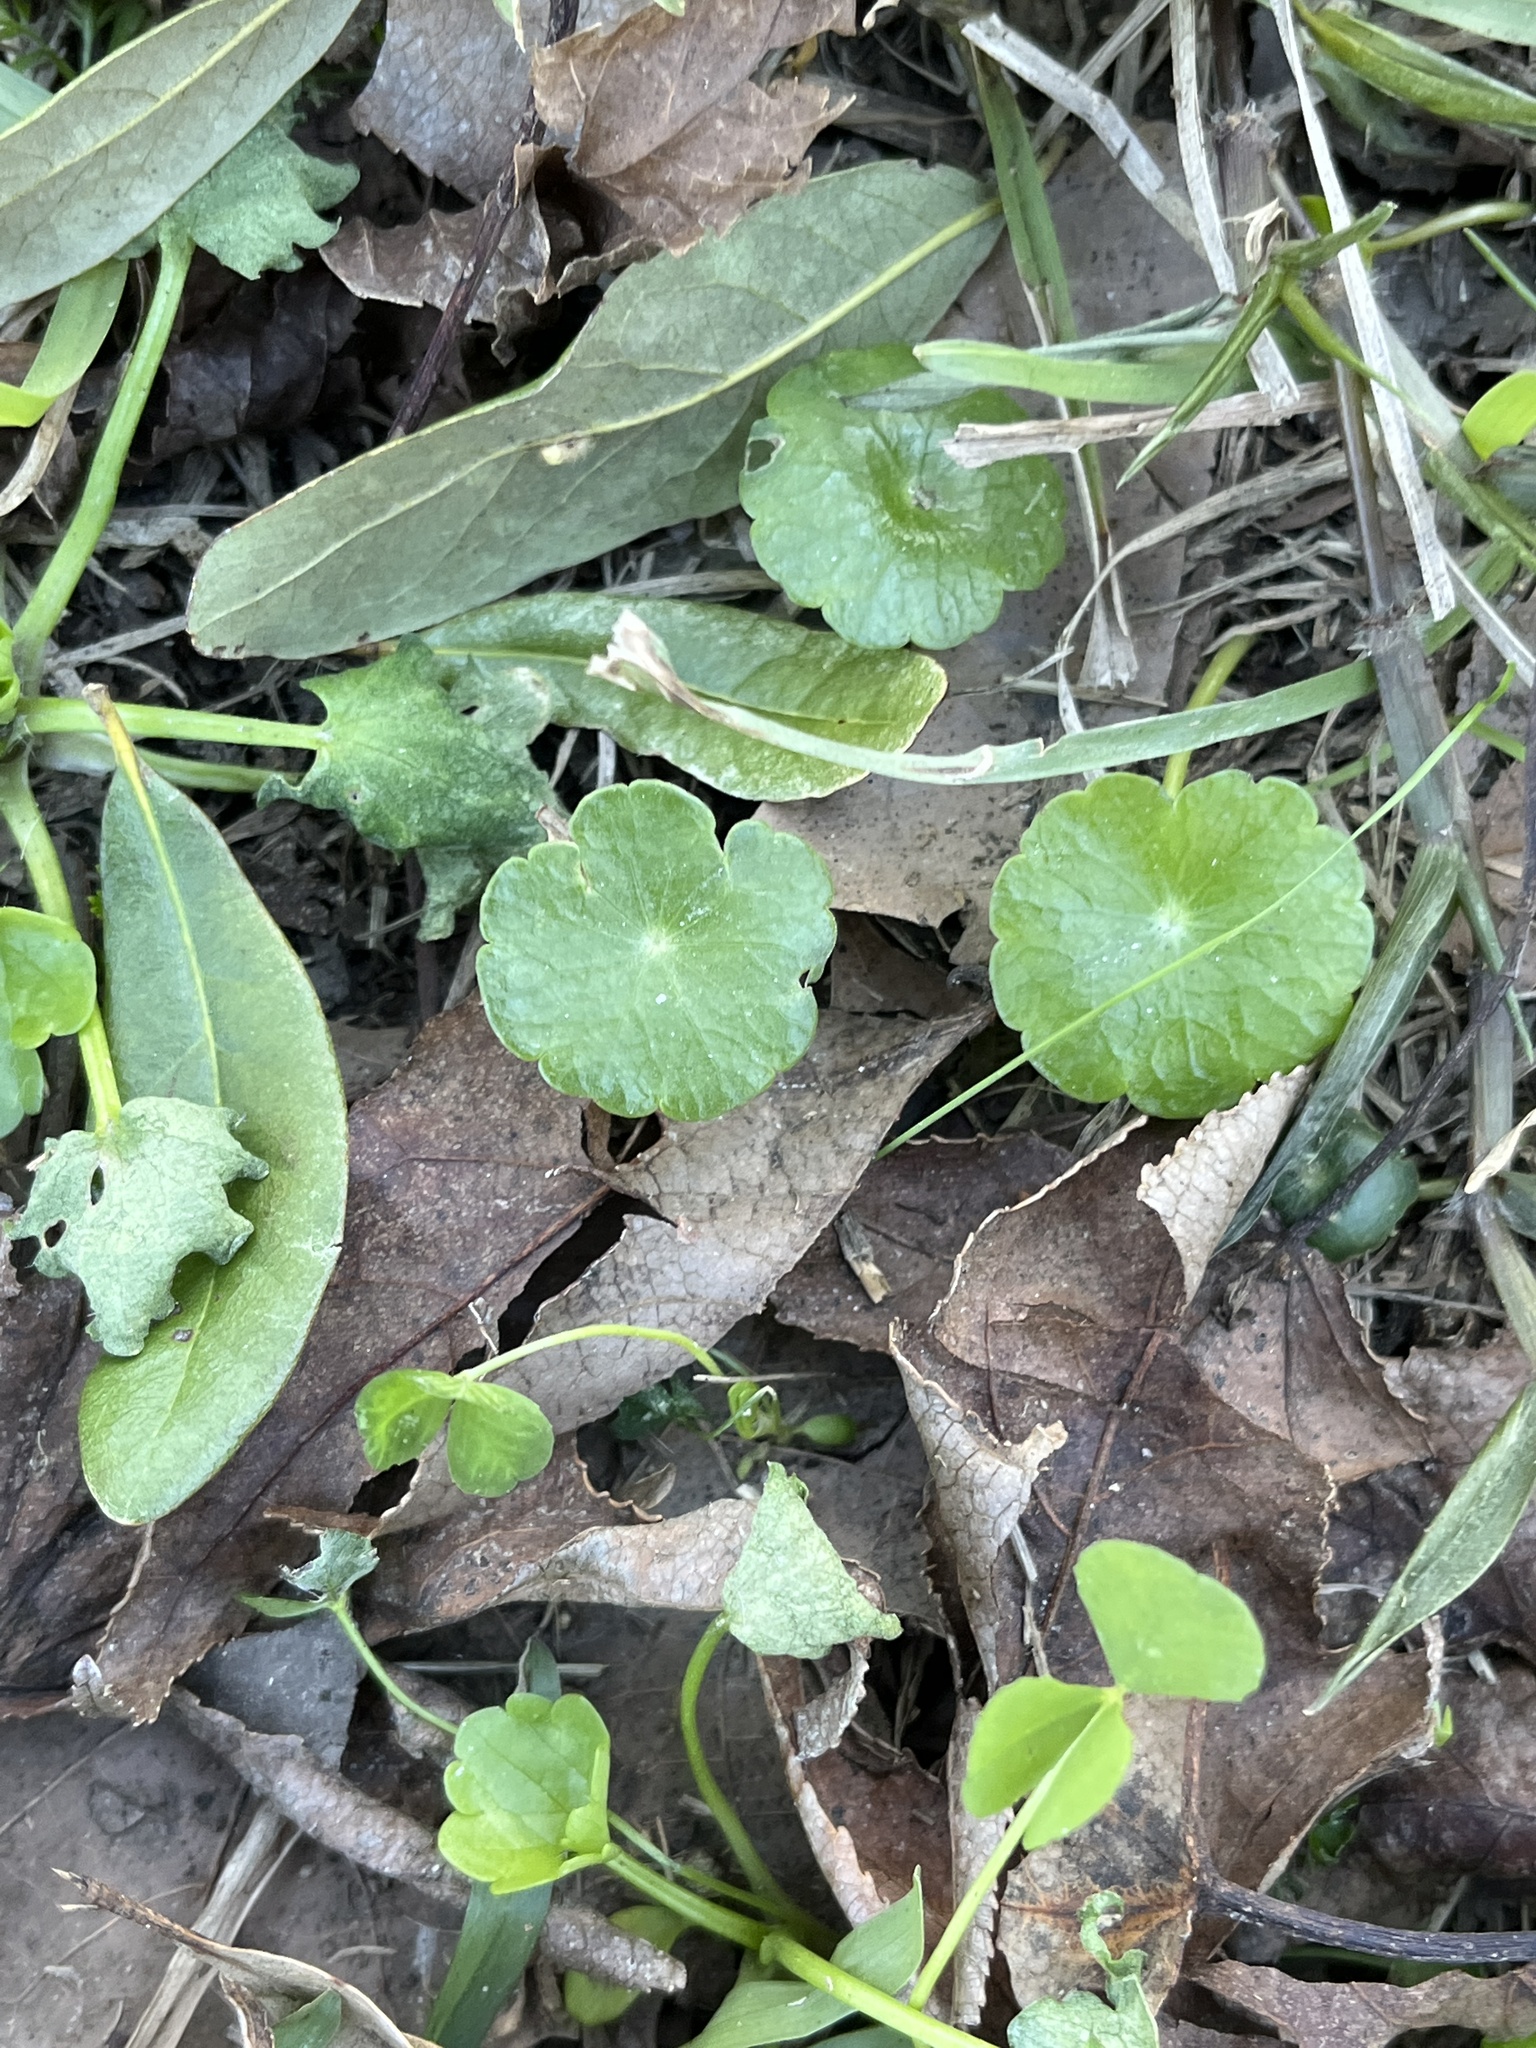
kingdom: Plantae
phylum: Tracheophyta
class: Magnoliopsida
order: Apiales
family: Araliaceae
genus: Hydrocotyle
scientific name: Hydrocotyle
